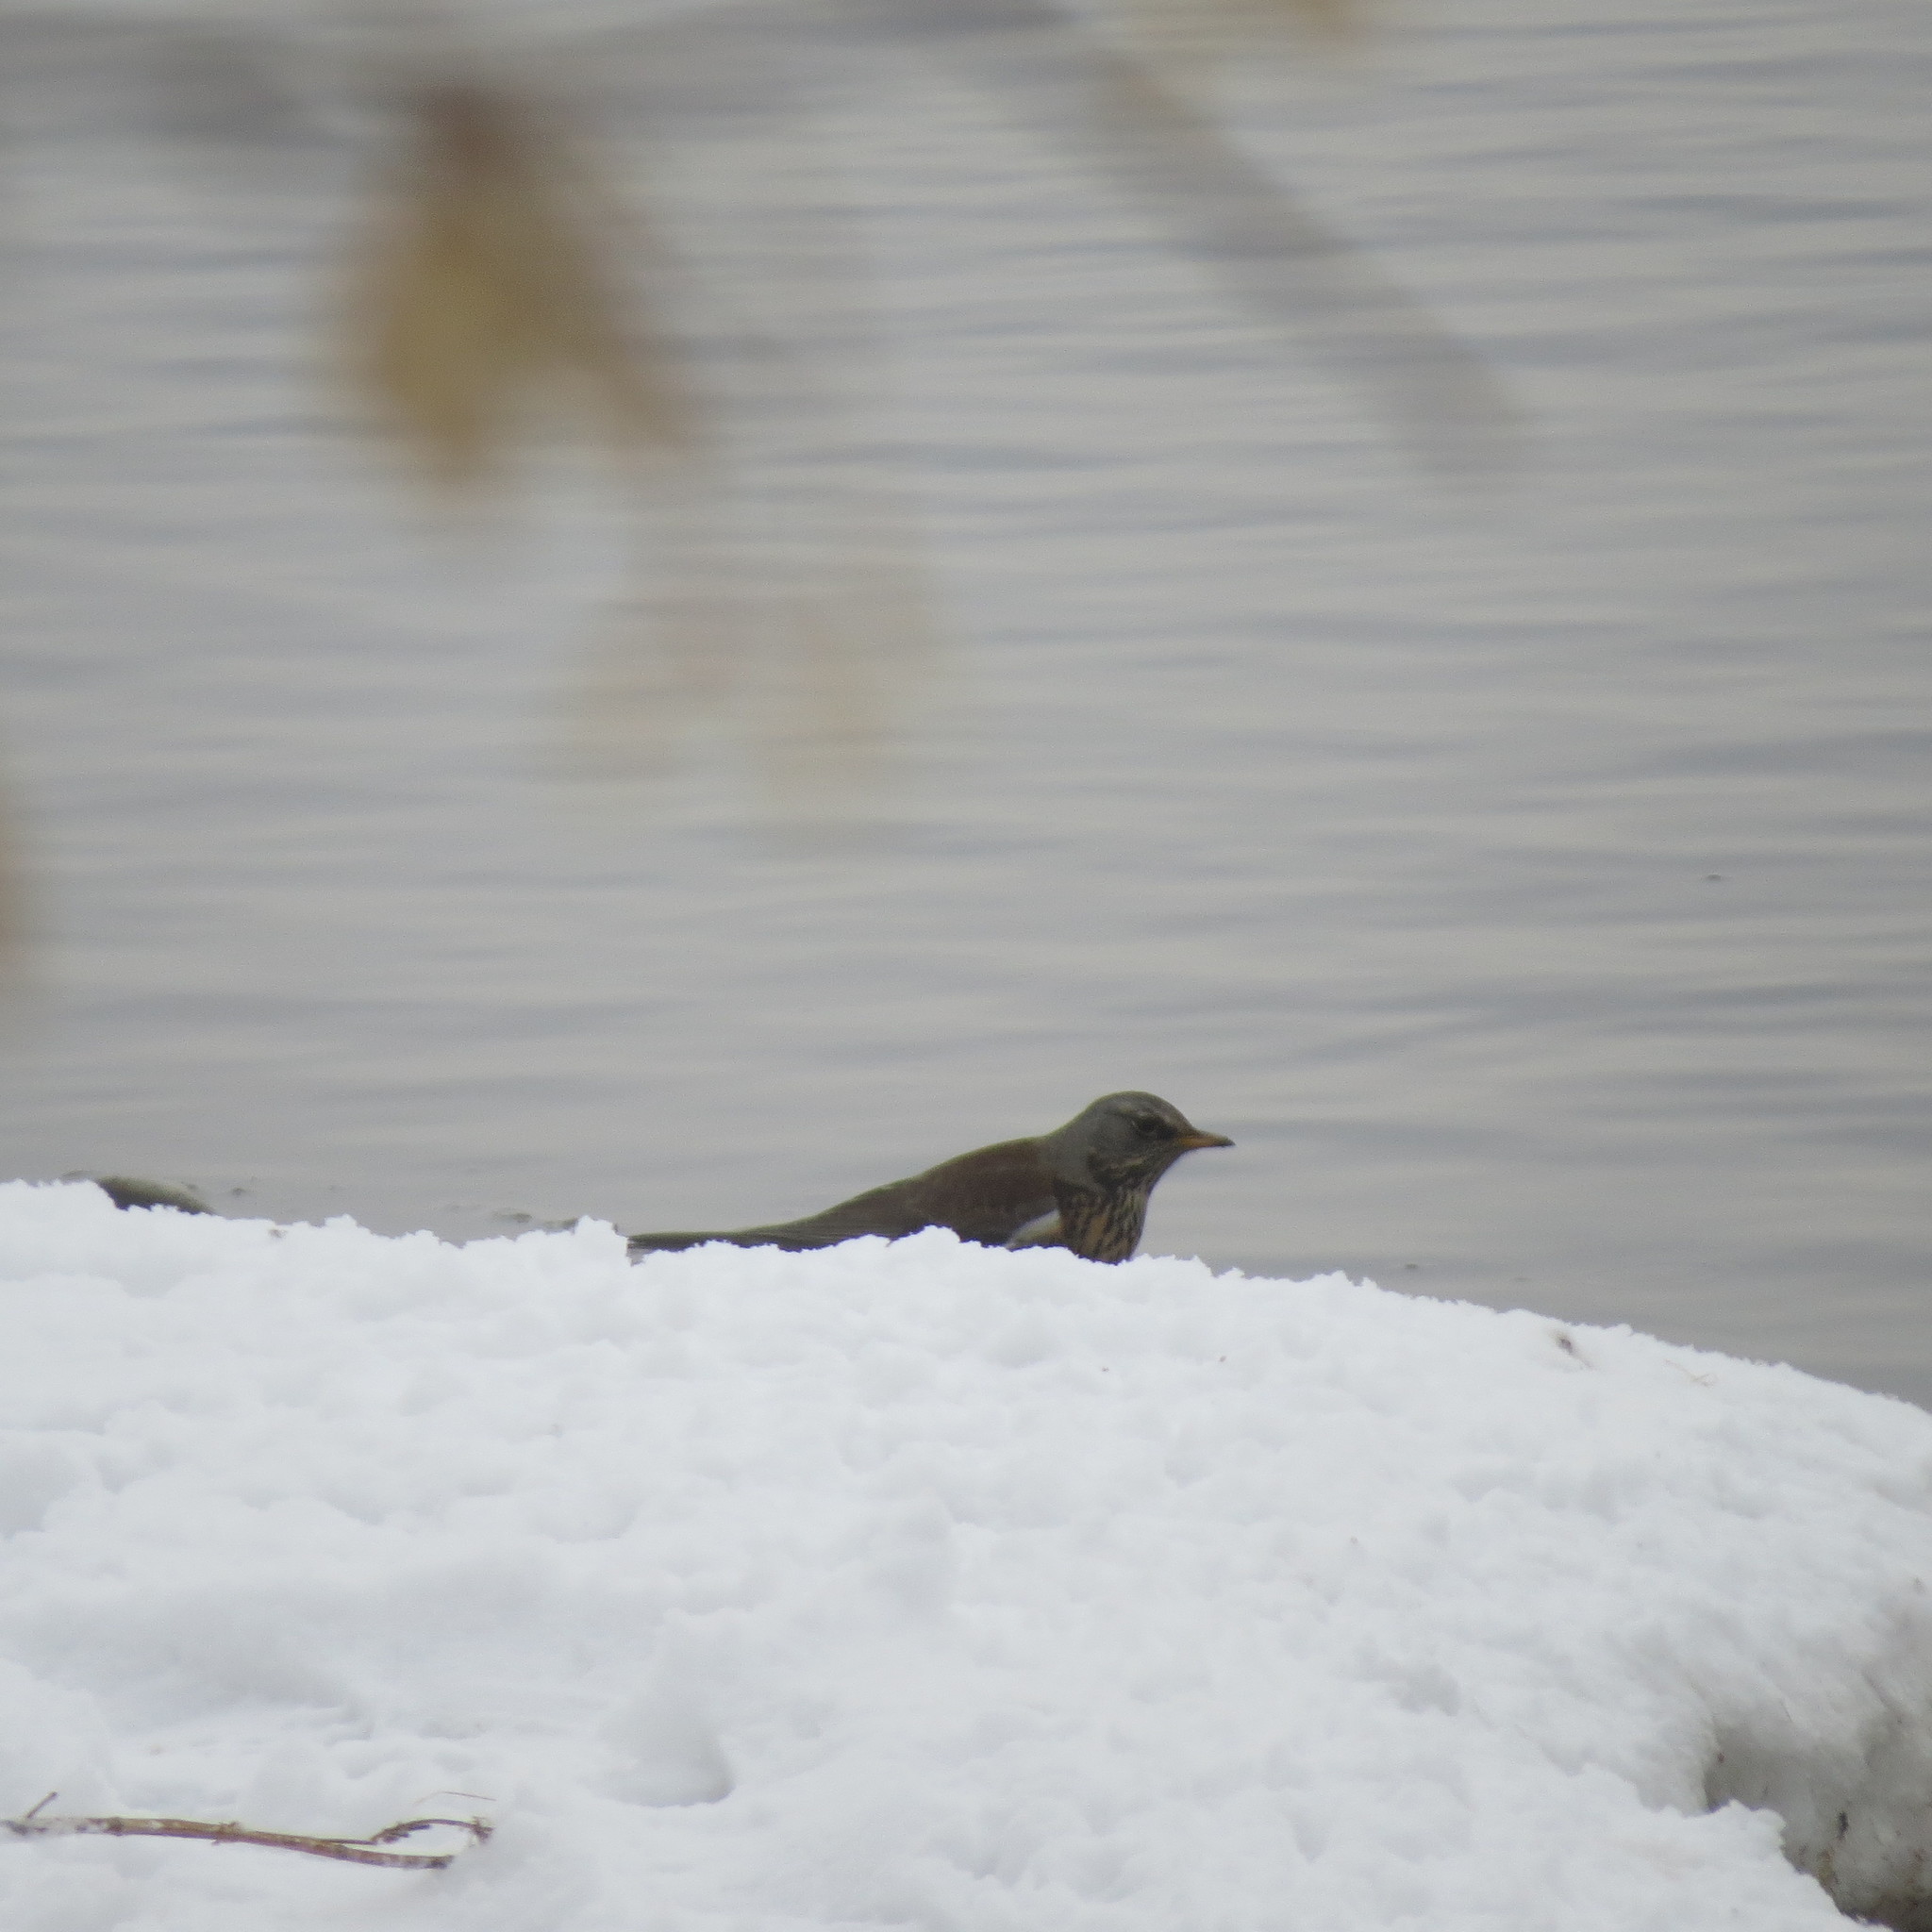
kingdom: Animalia
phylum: Chordata
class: Aves
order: Passeriformes
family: Turdidae
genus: Turdus
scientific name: Turdus pilaris
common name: Fieldfare
